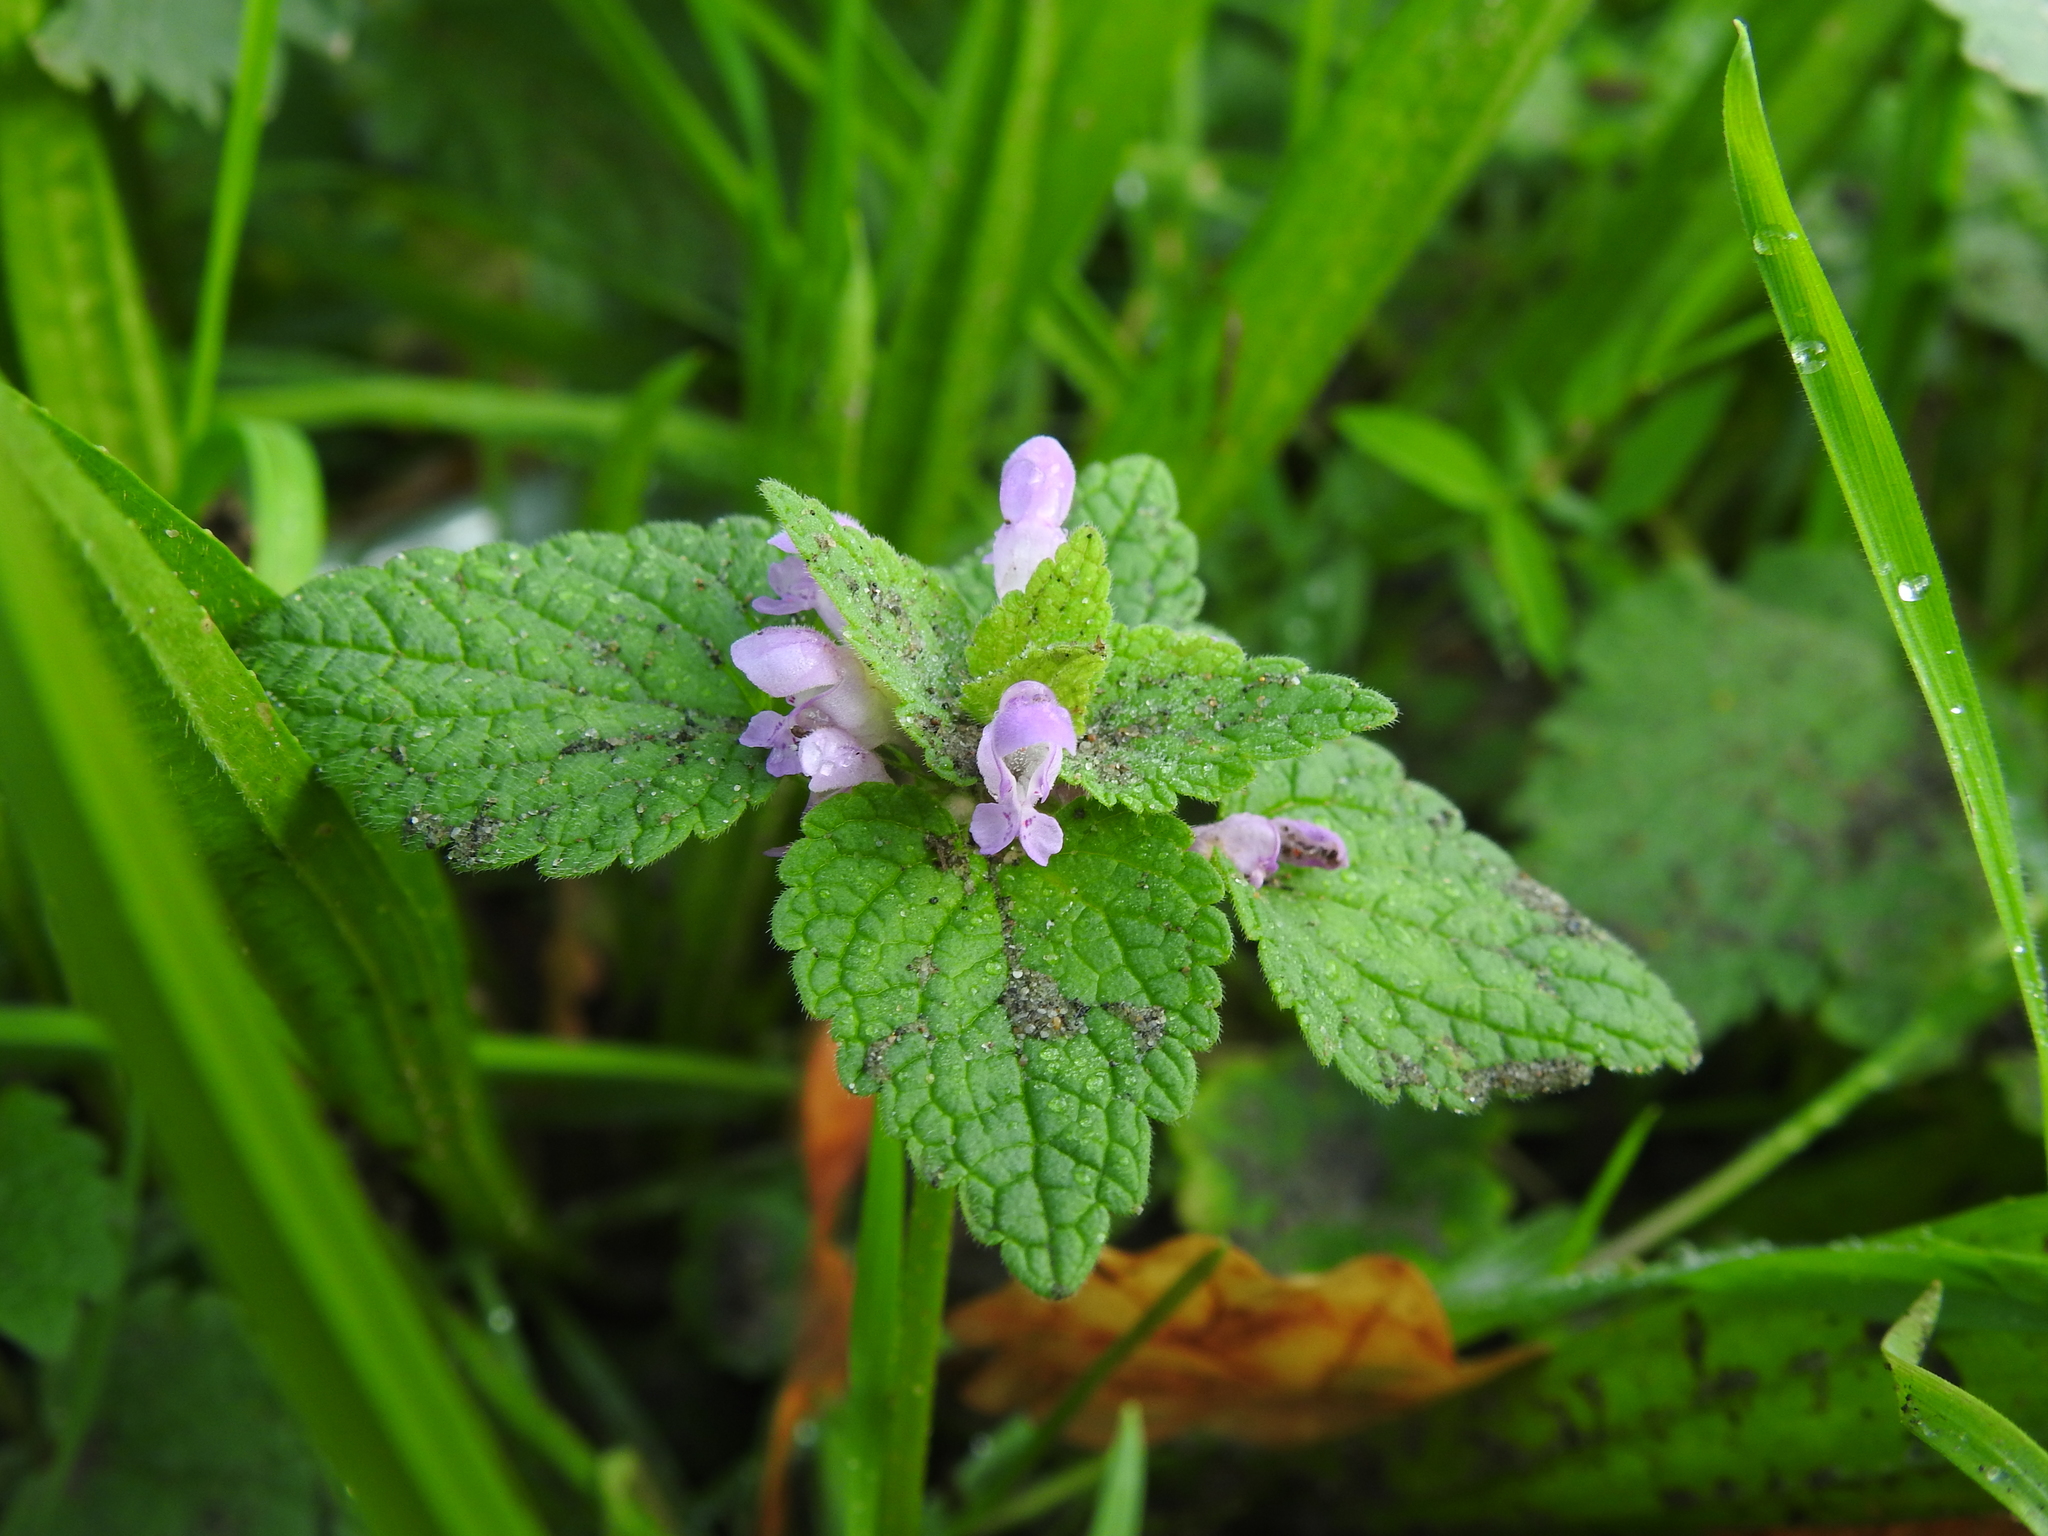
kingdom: Plantae
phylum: Tracheophyta
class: Magnoliopsida
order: Lamiales
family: Lamiaceae
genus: Lamium
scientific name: Lamium purpureum
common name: Red dead-nettle
